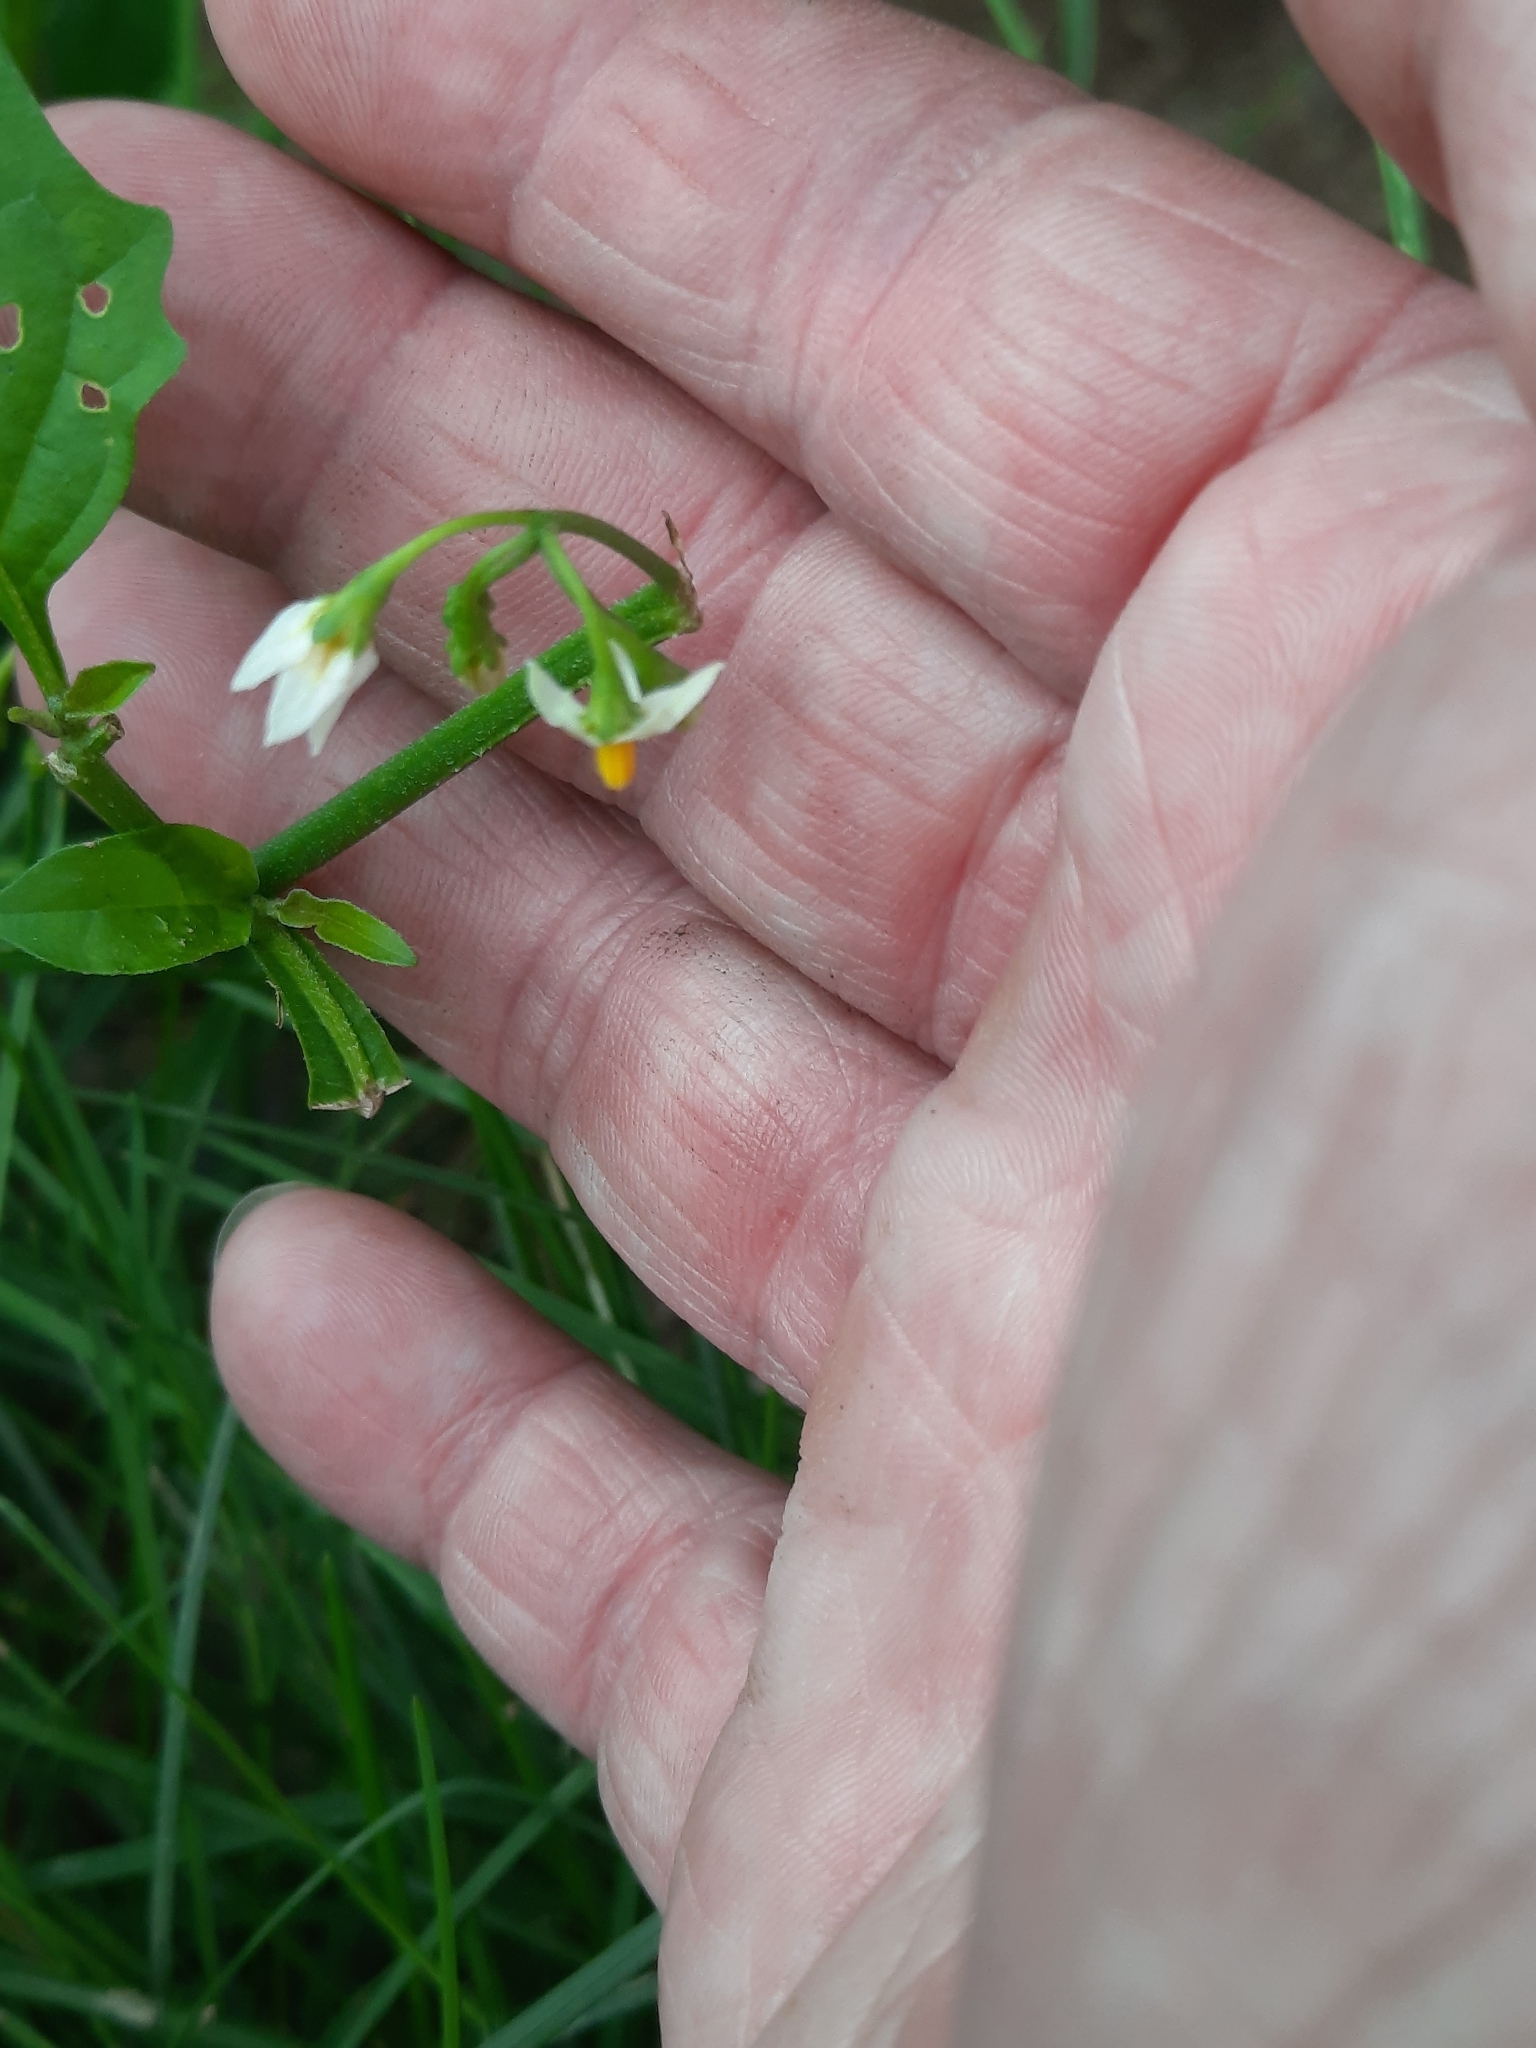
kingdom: Plantae
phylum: Tracheophyta
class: Magnoliopsida
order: Solanales
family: Solanaceae
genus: Solanum
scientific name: Solanum emulans
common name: Eastern black nightshade
